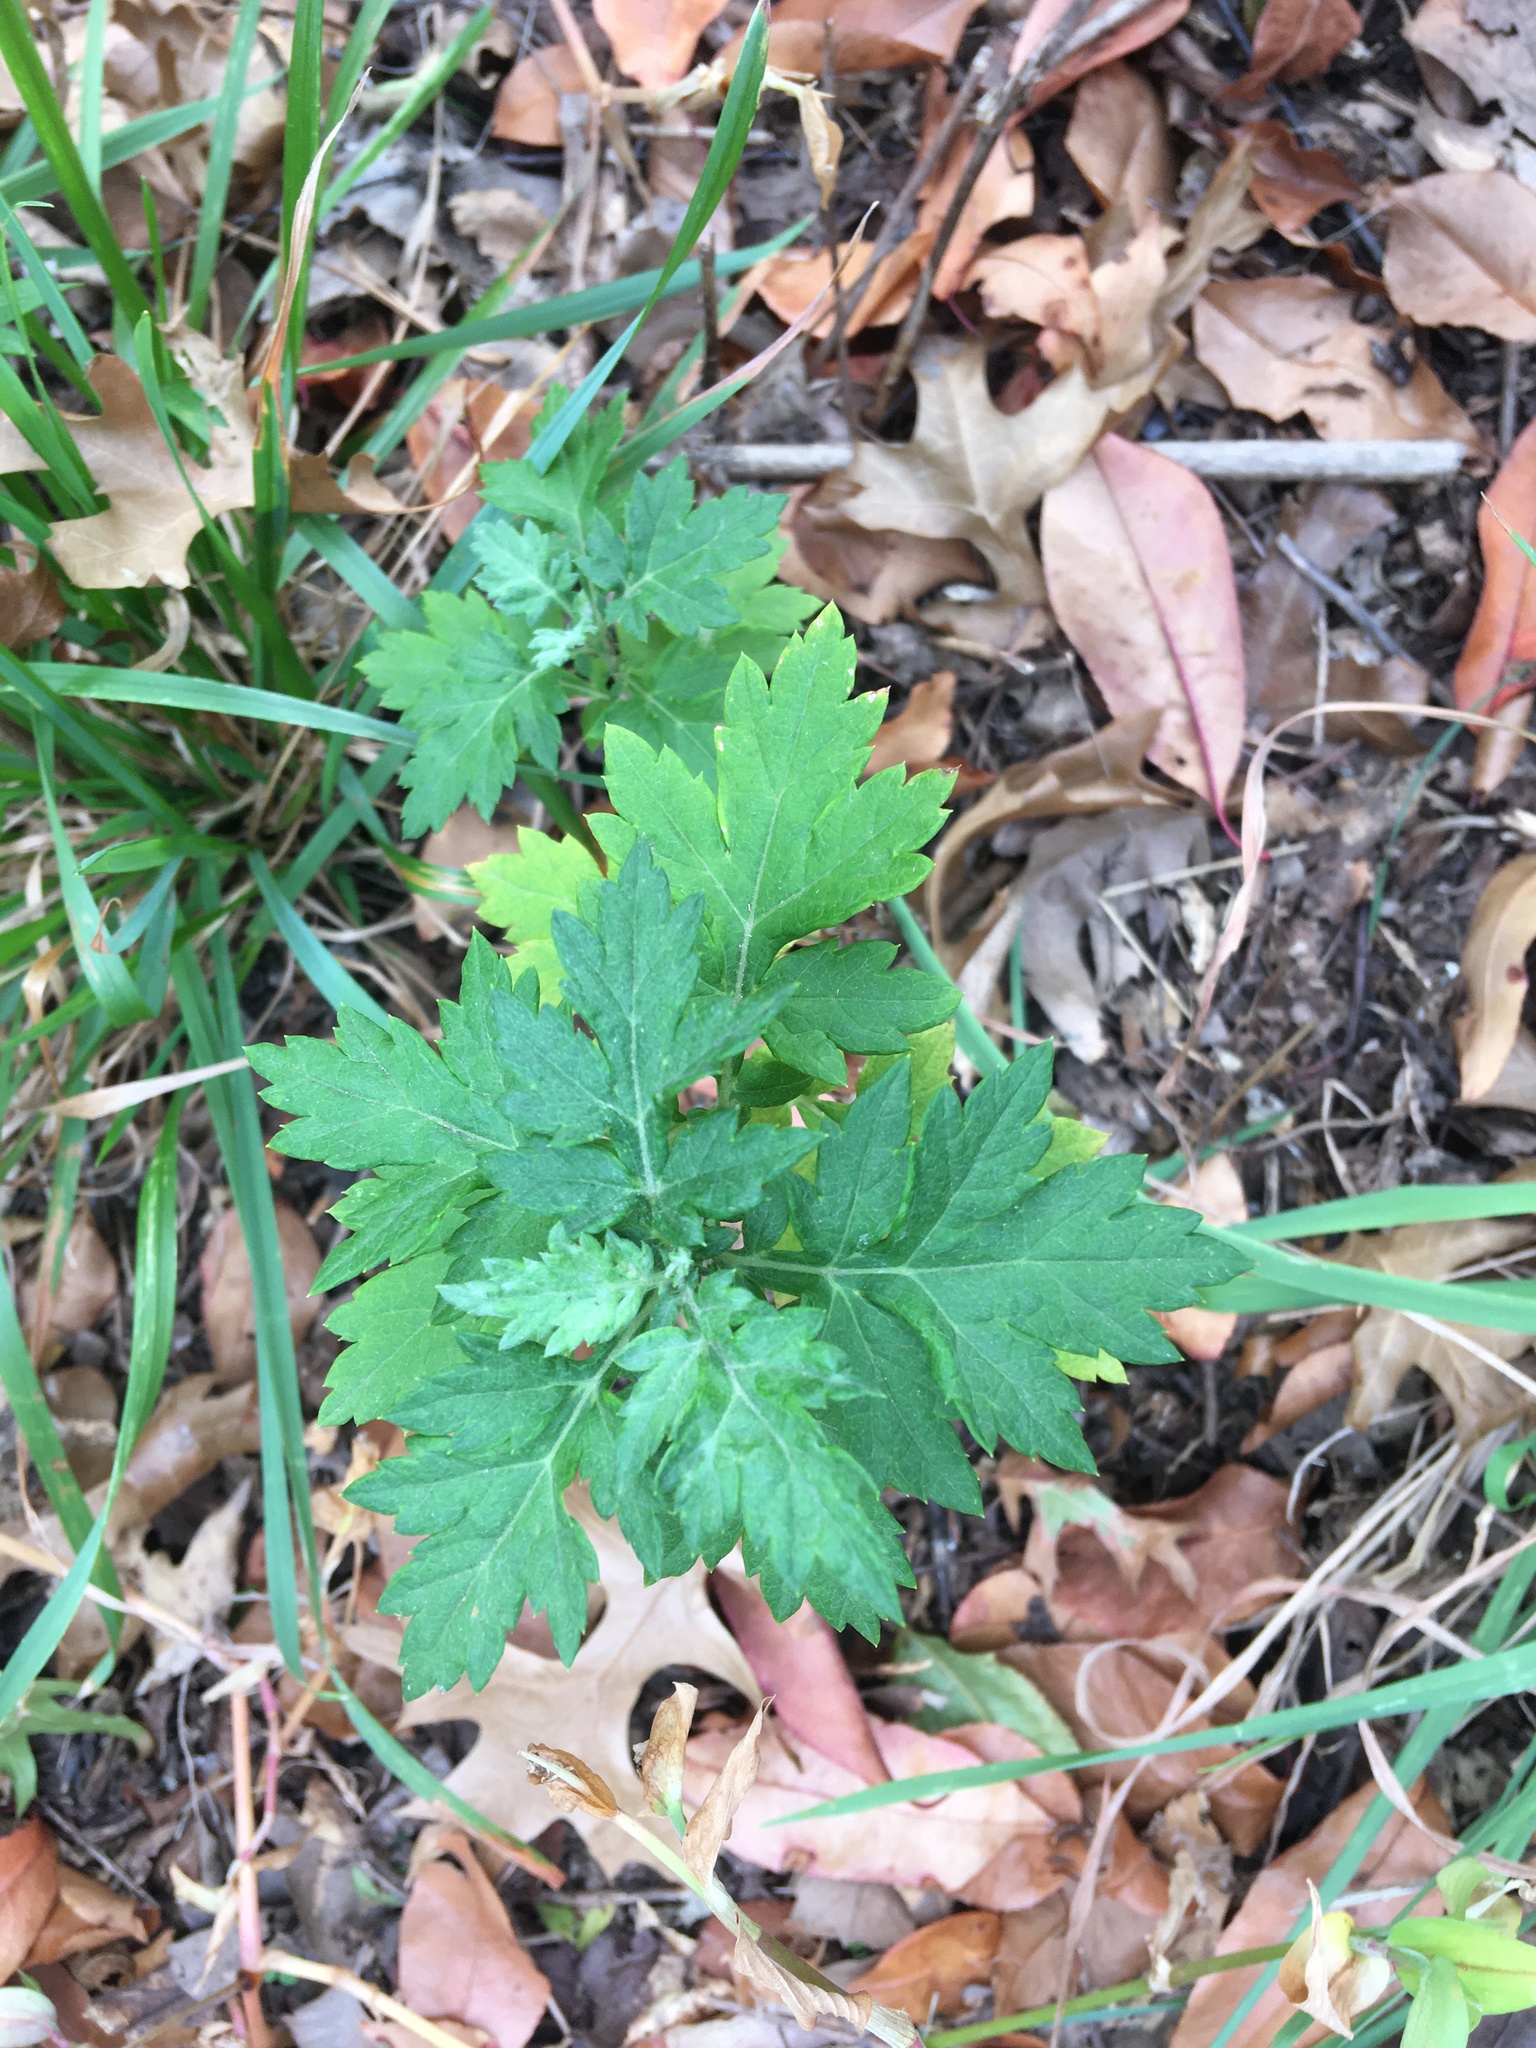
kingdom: Plantae
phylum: Tracheophyta
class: Magnoliopsida
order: Asterales
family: Asteraceae
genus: Artemisia
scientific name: Artemisia vulgaris
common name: Mugwort
